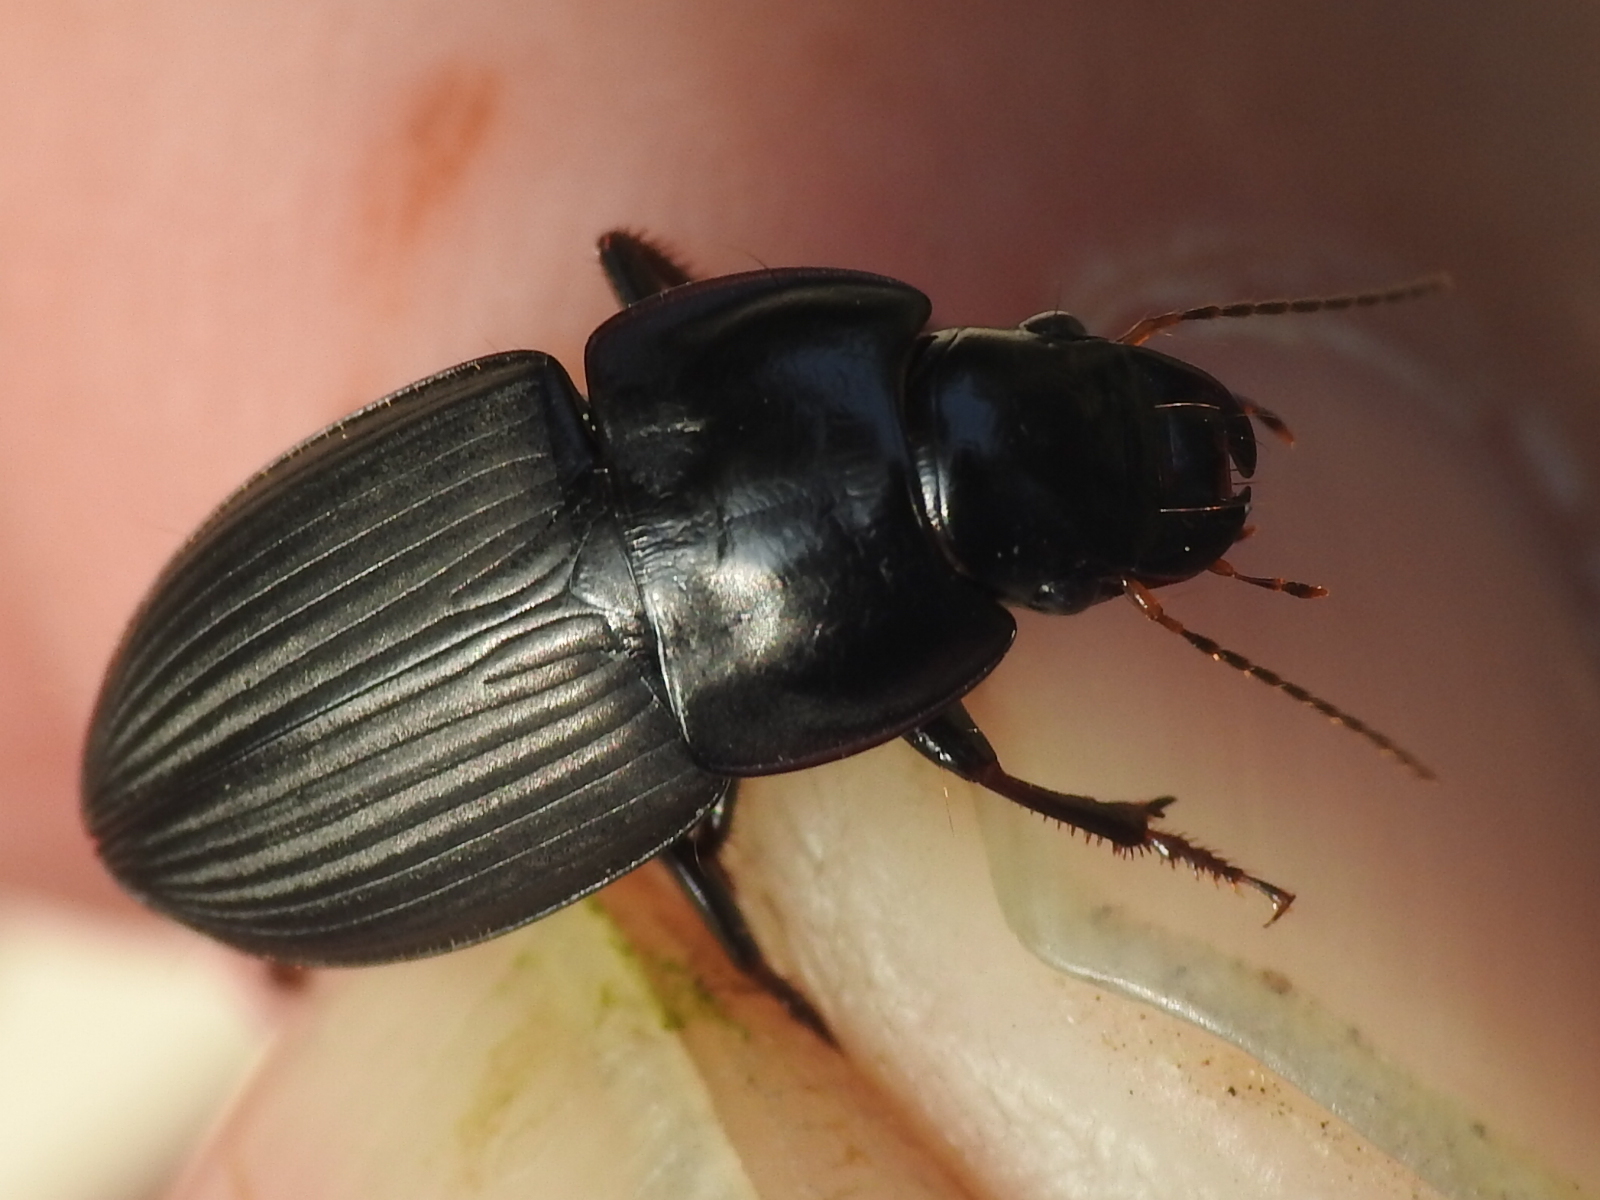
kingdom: Animalia
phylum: Arthropoda
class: Insecta
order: Coleoptera
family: Carabidae
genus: Anisodactylus
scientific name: Anisodactylus merula
